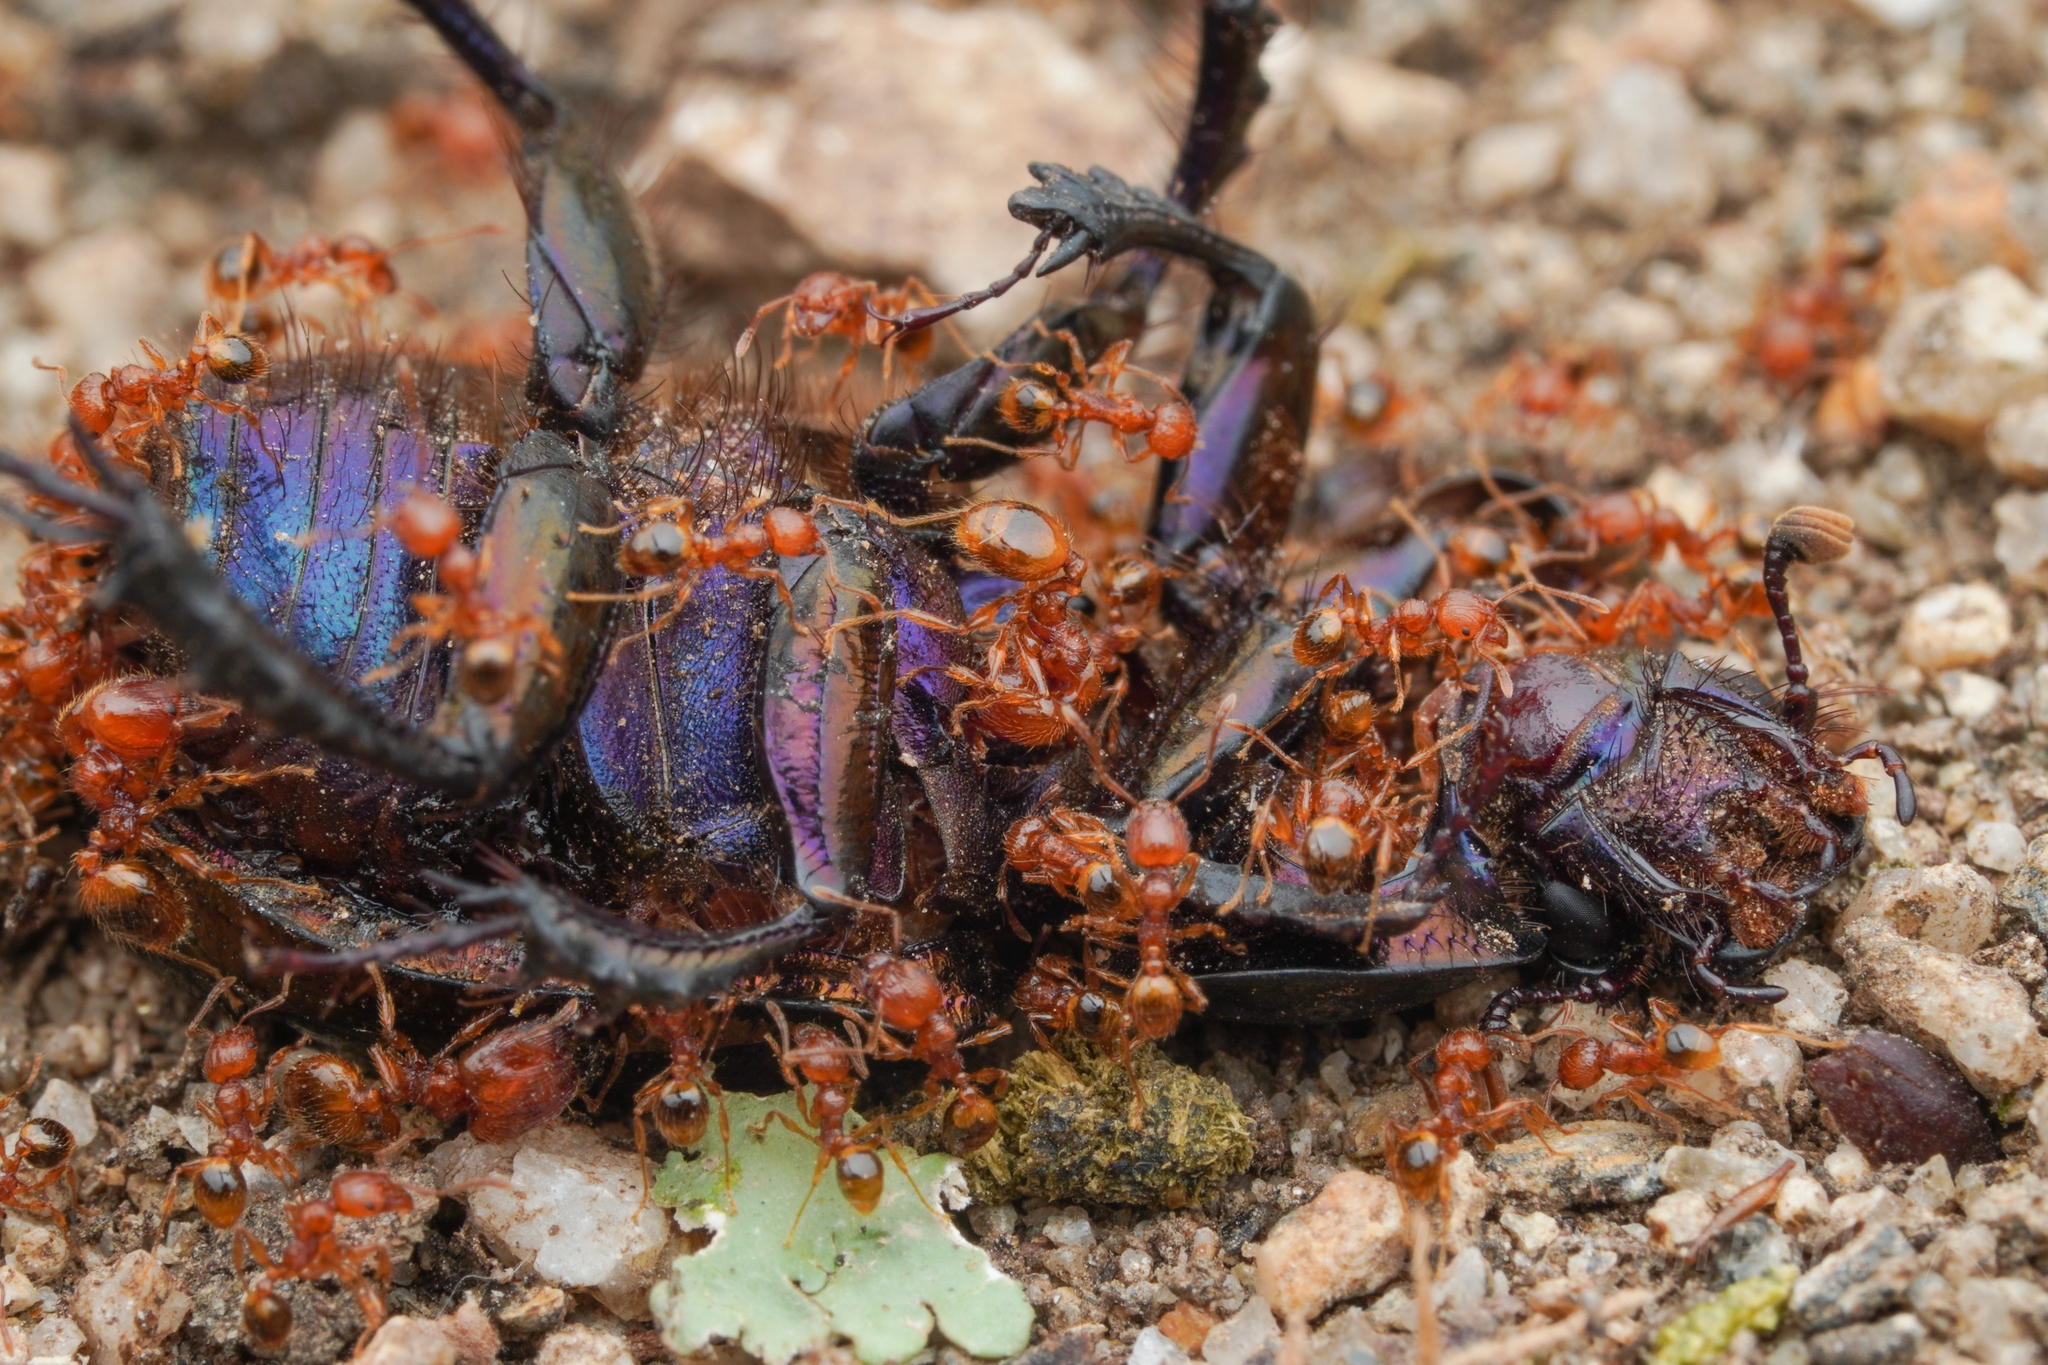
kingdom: Animalia
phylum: Arthropoda
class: Insecta
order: Hymenoptera
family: Formicidae
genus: Pheidole
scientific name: Pheidole fervida
